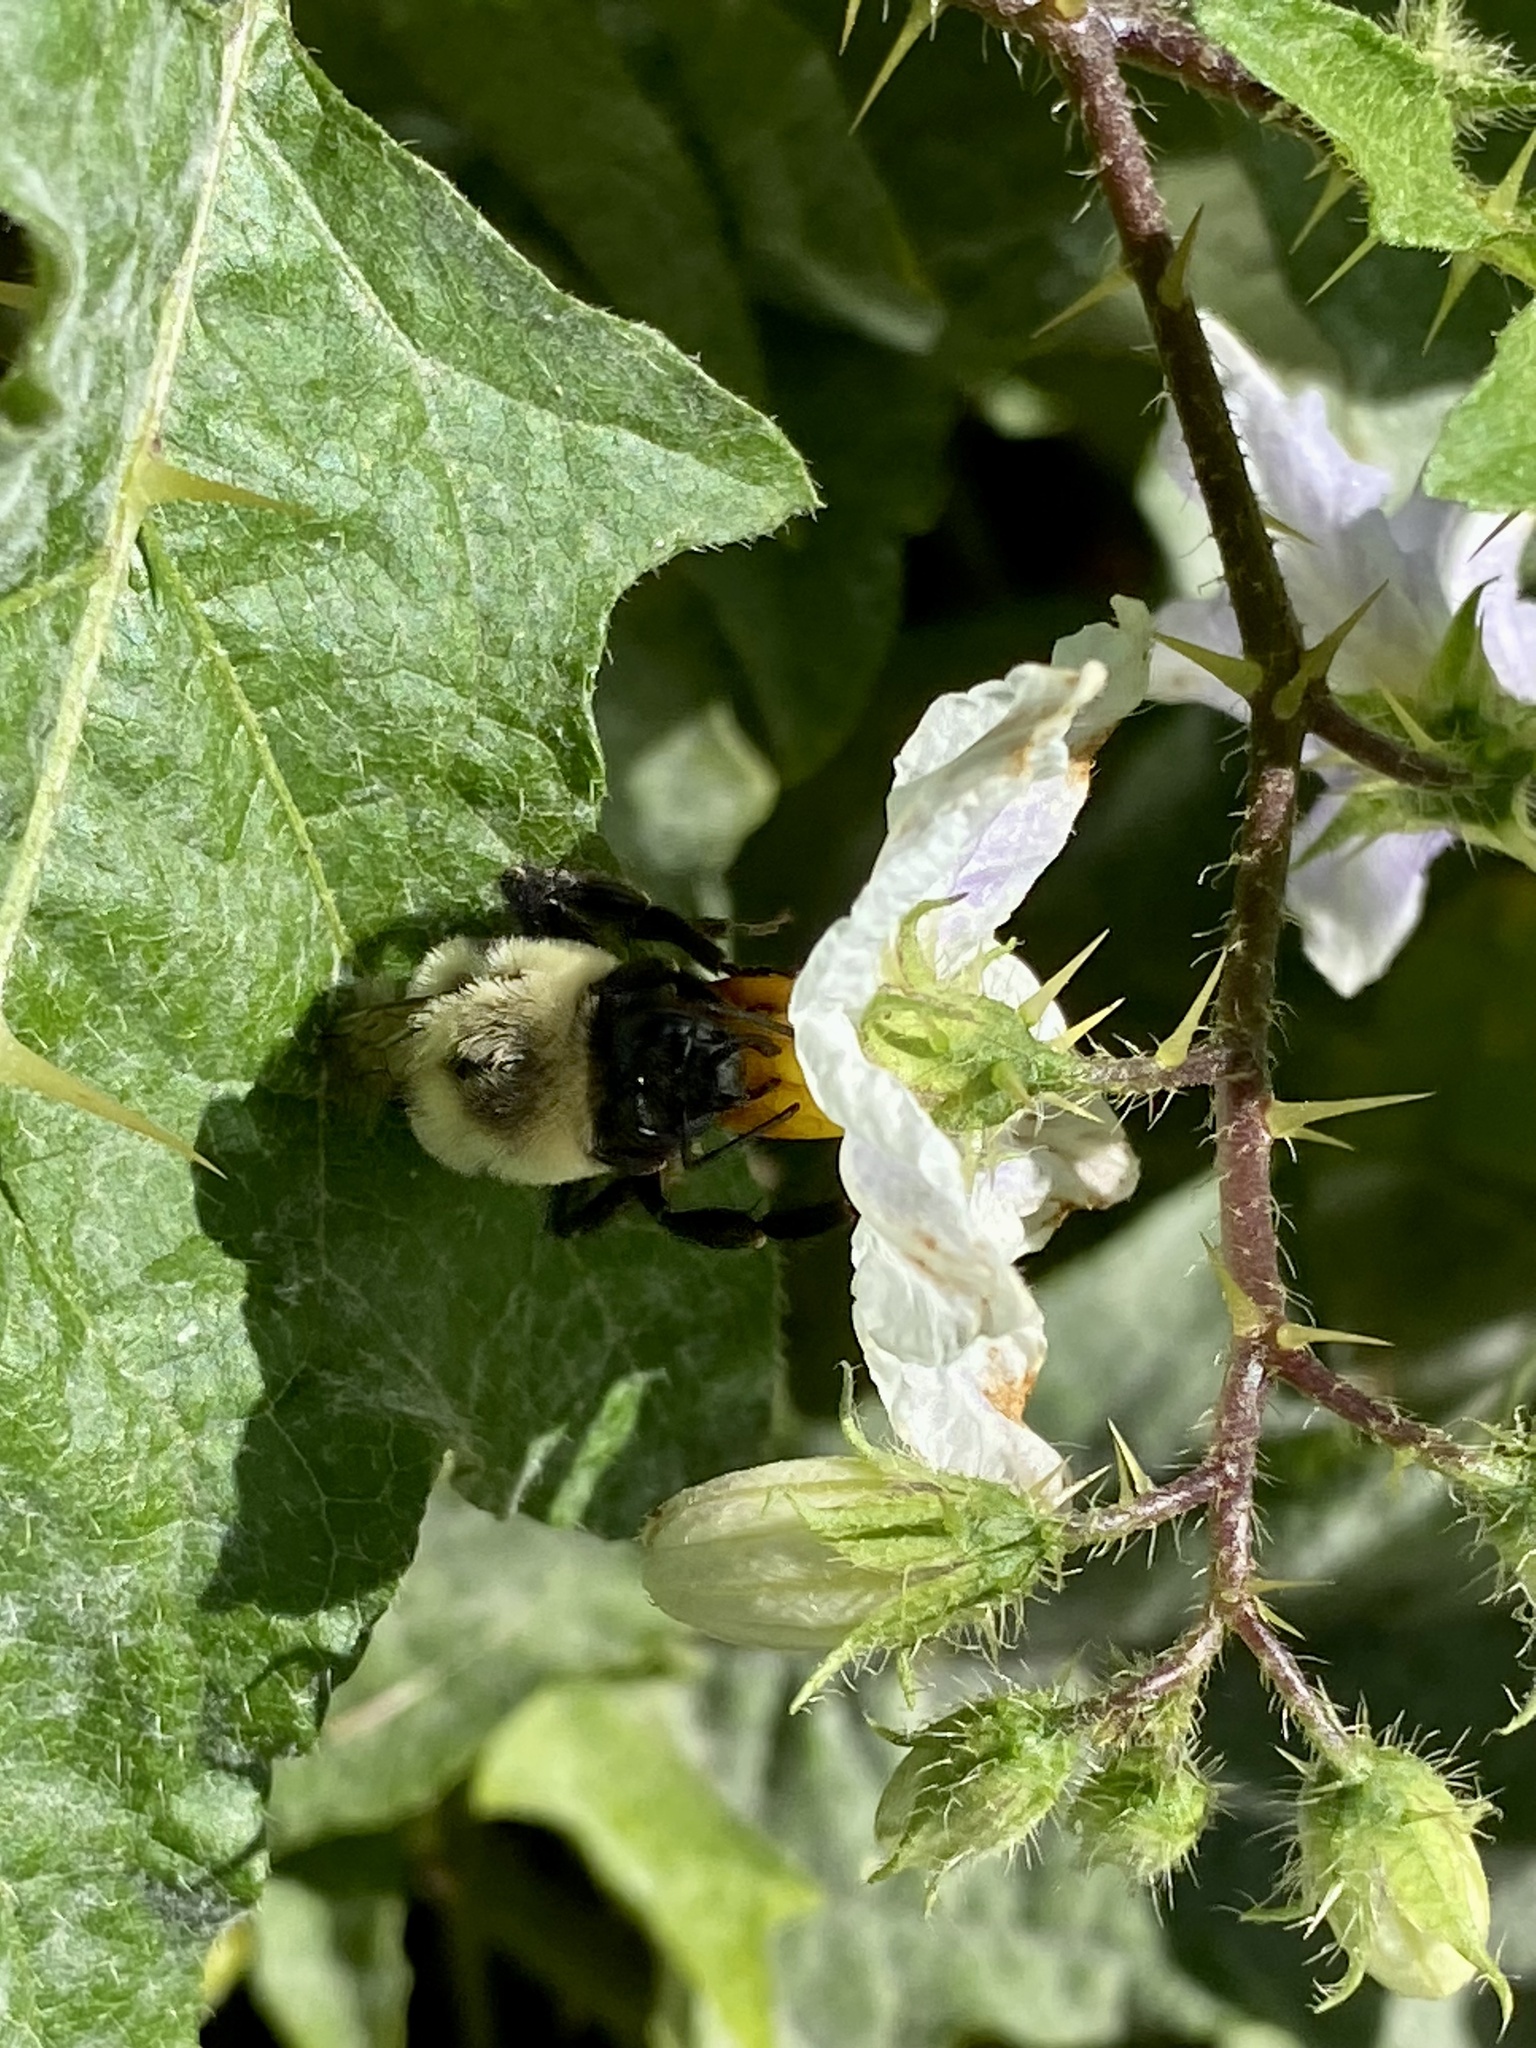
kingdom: Animalia
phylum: Arthropoda
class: Insecta
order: Hymenoptera
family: Apidae
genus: Bombus
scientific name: Bombus impatiens
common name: Common eastern bumble bee
